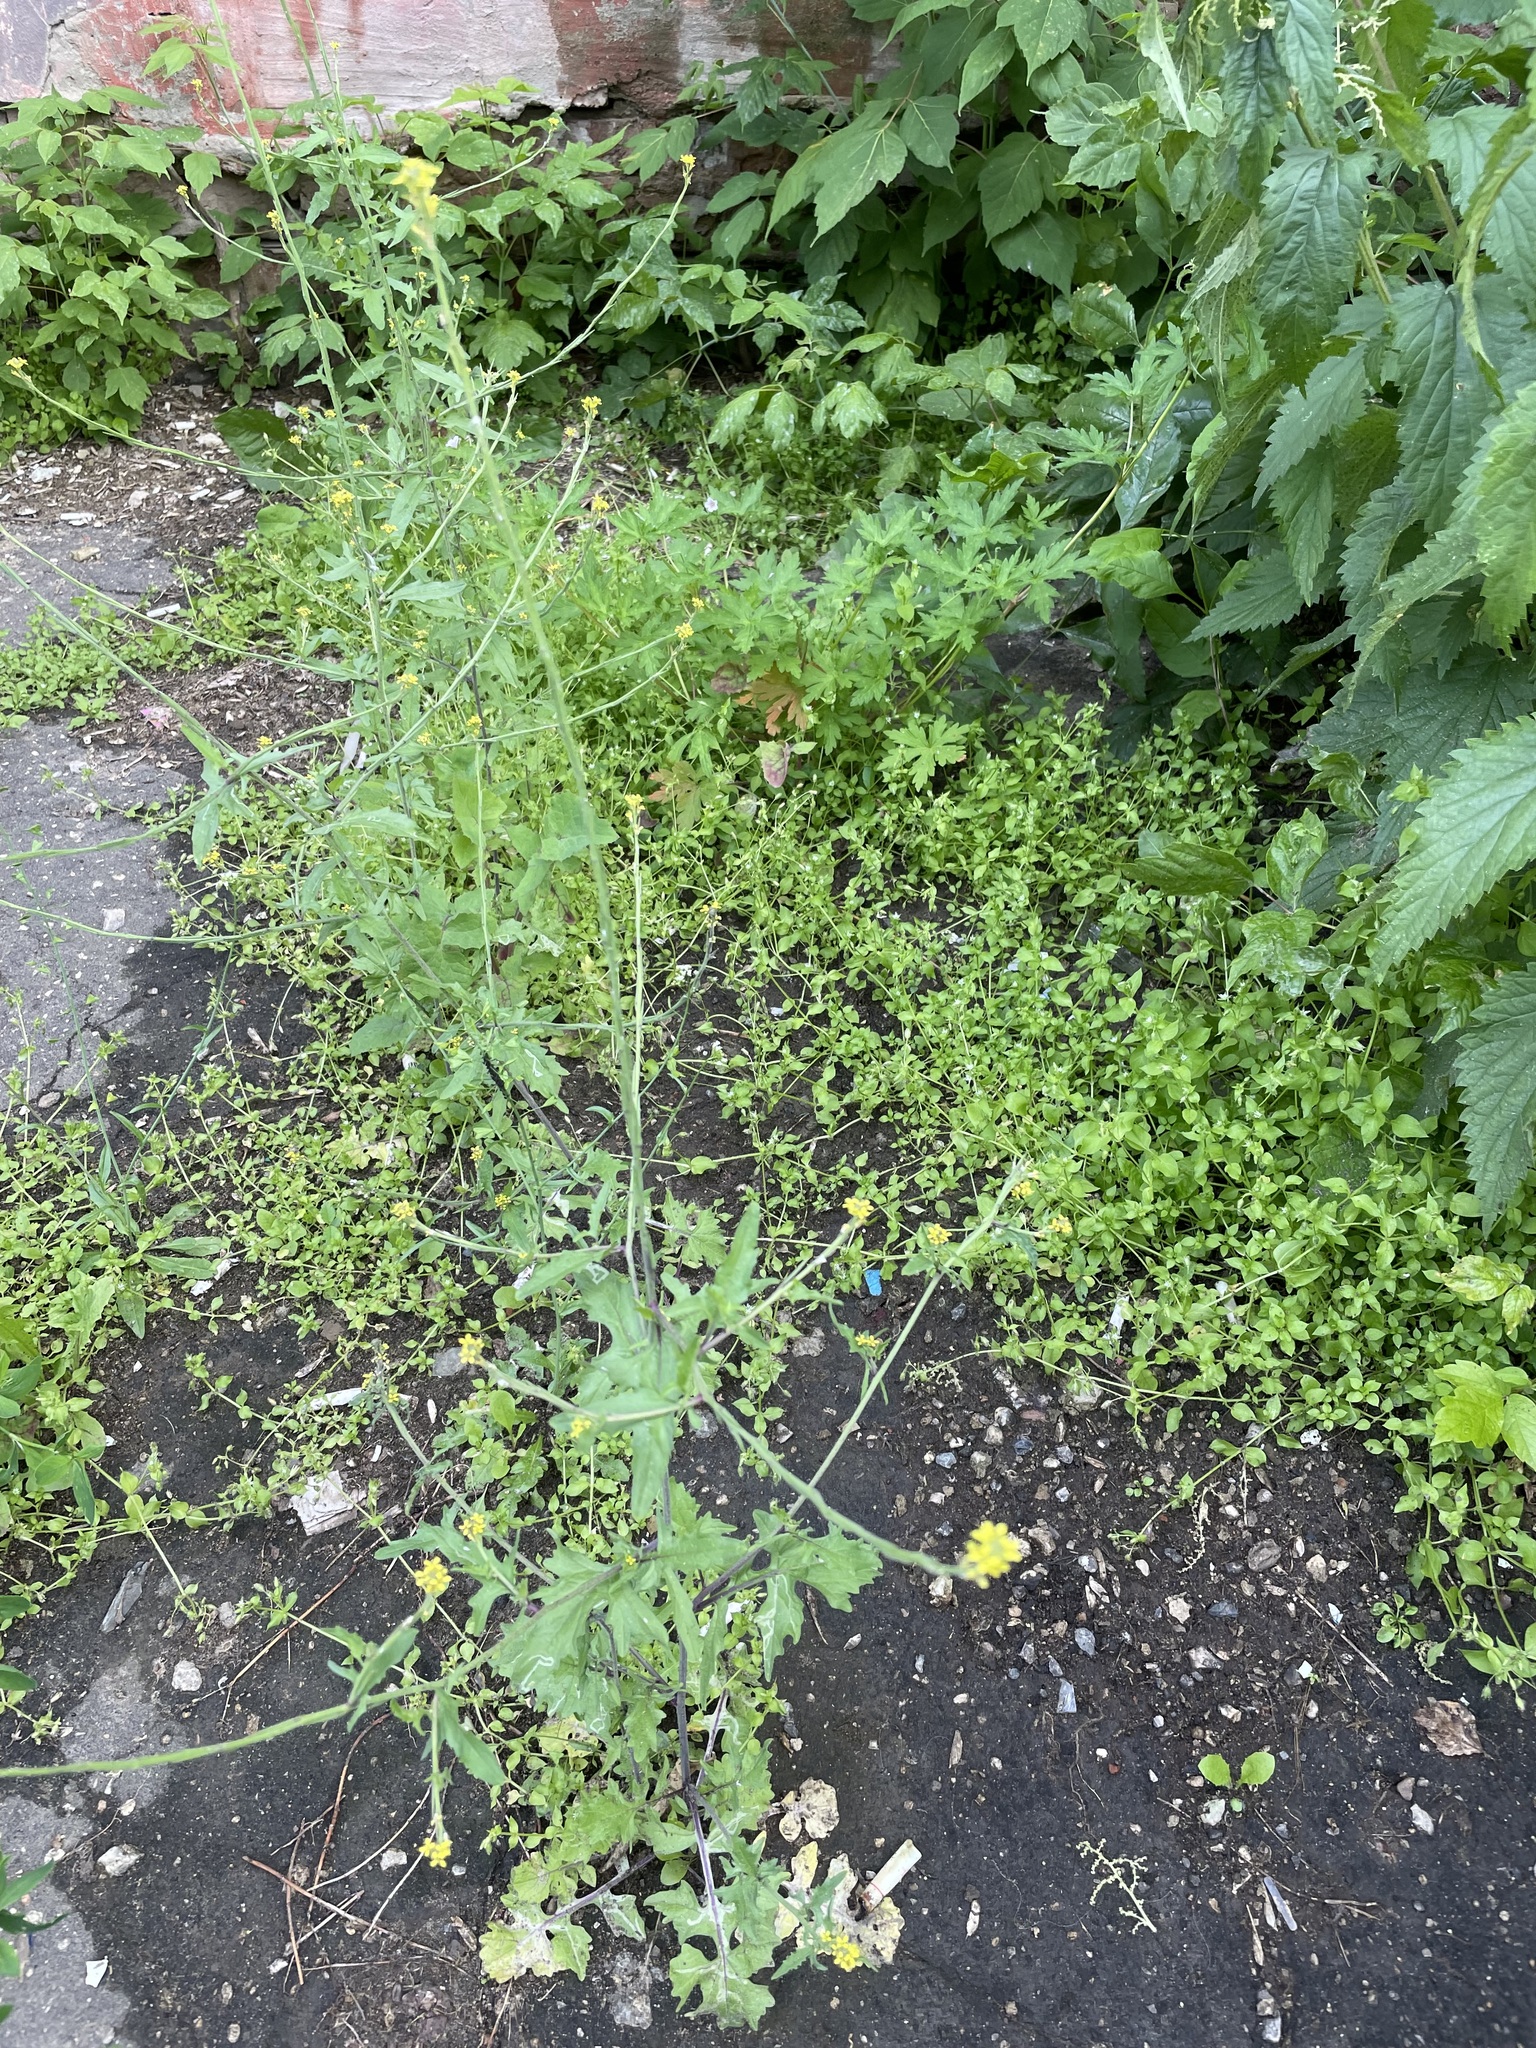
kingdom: Plantae
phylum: Tracheophyta
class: Magnoliopsida
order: Brassicales
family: Brassicaceae
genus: Sisymbrium
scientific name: Sisymbrium officinale
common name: Hedge mustard
